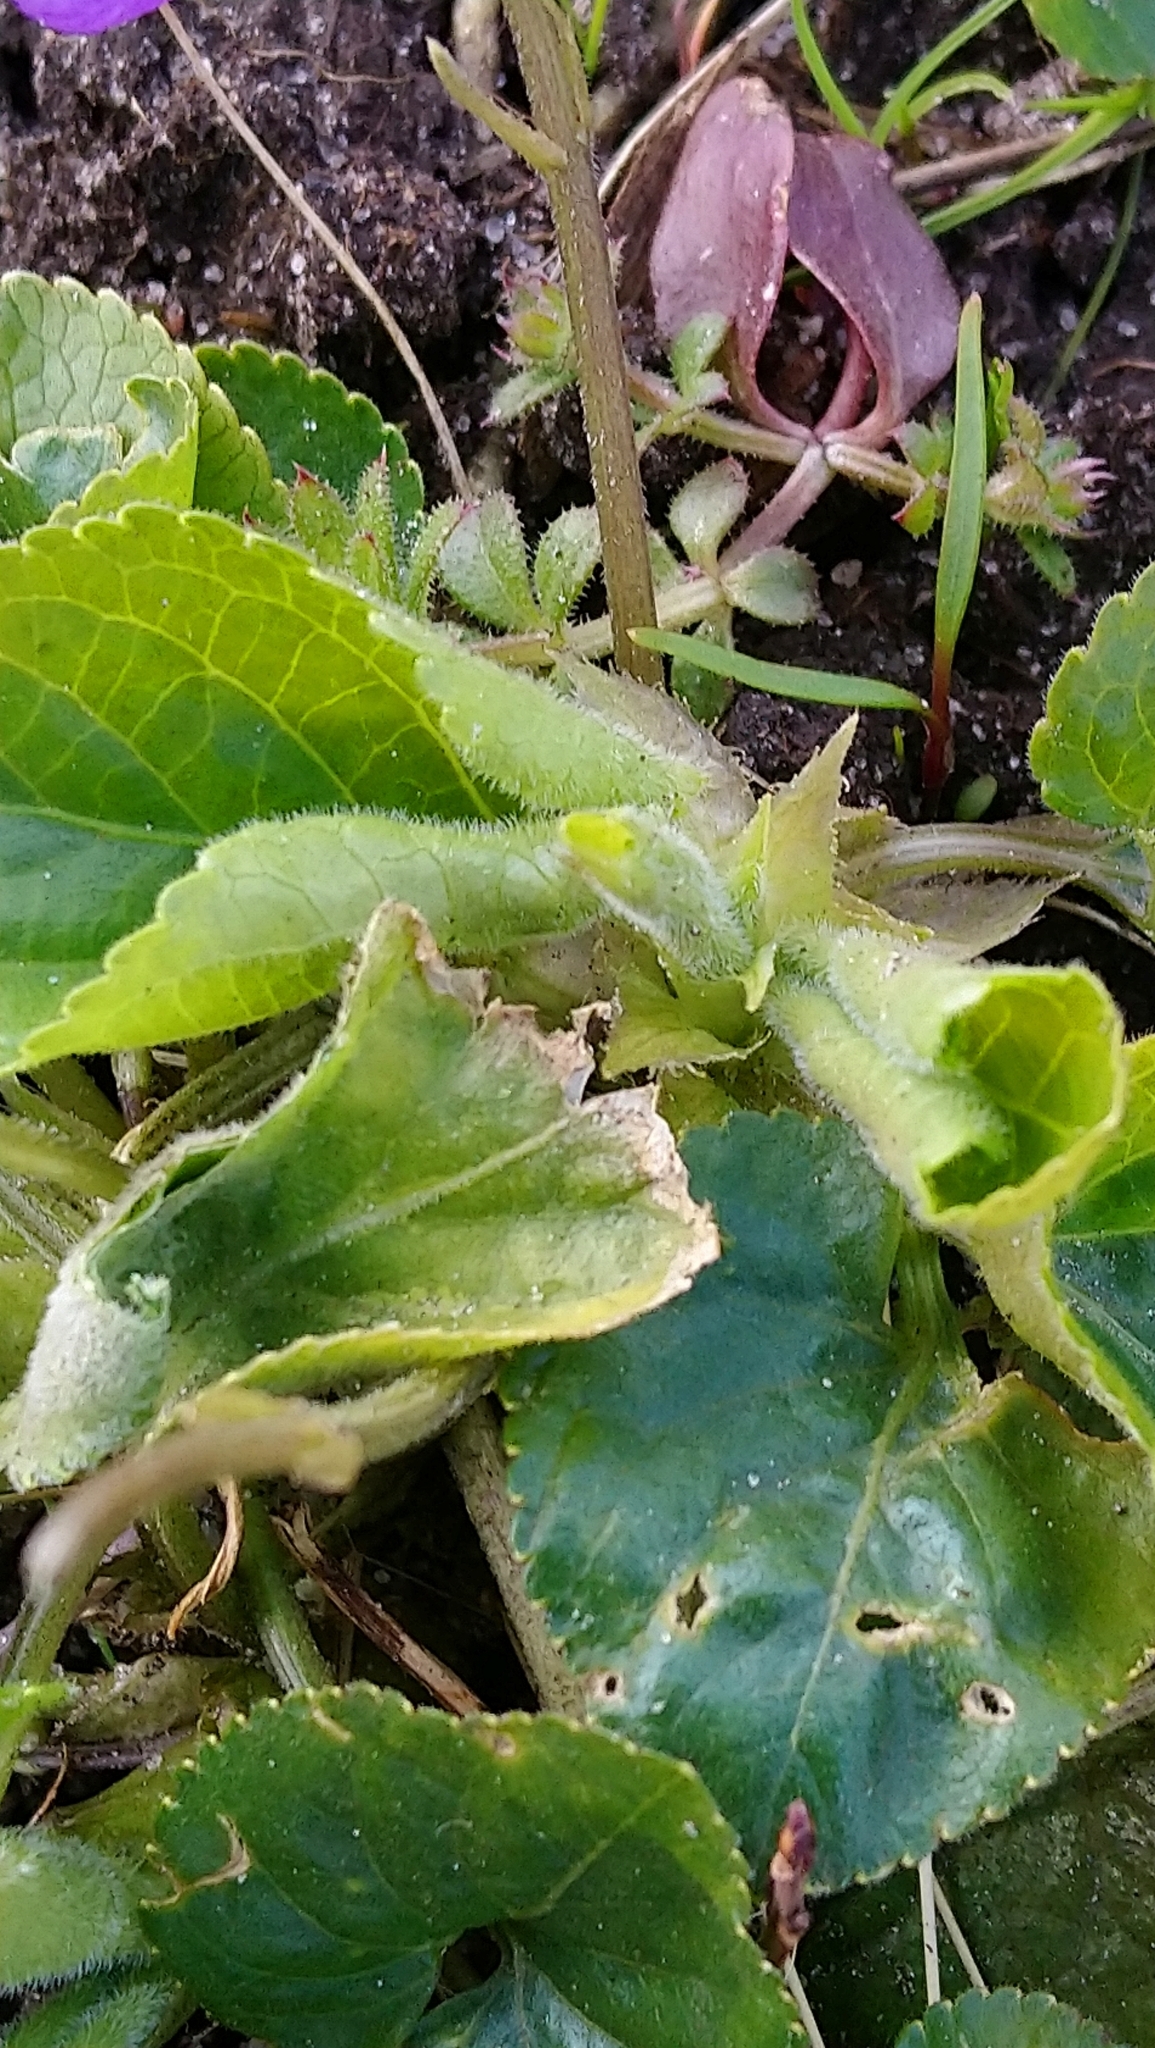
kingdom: Plantae
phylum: Tracheophyta
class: Magnoliopsida
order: Malpighiales
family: Violaceae
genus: Viola
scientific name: Viola odorata
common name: Sweet violet
